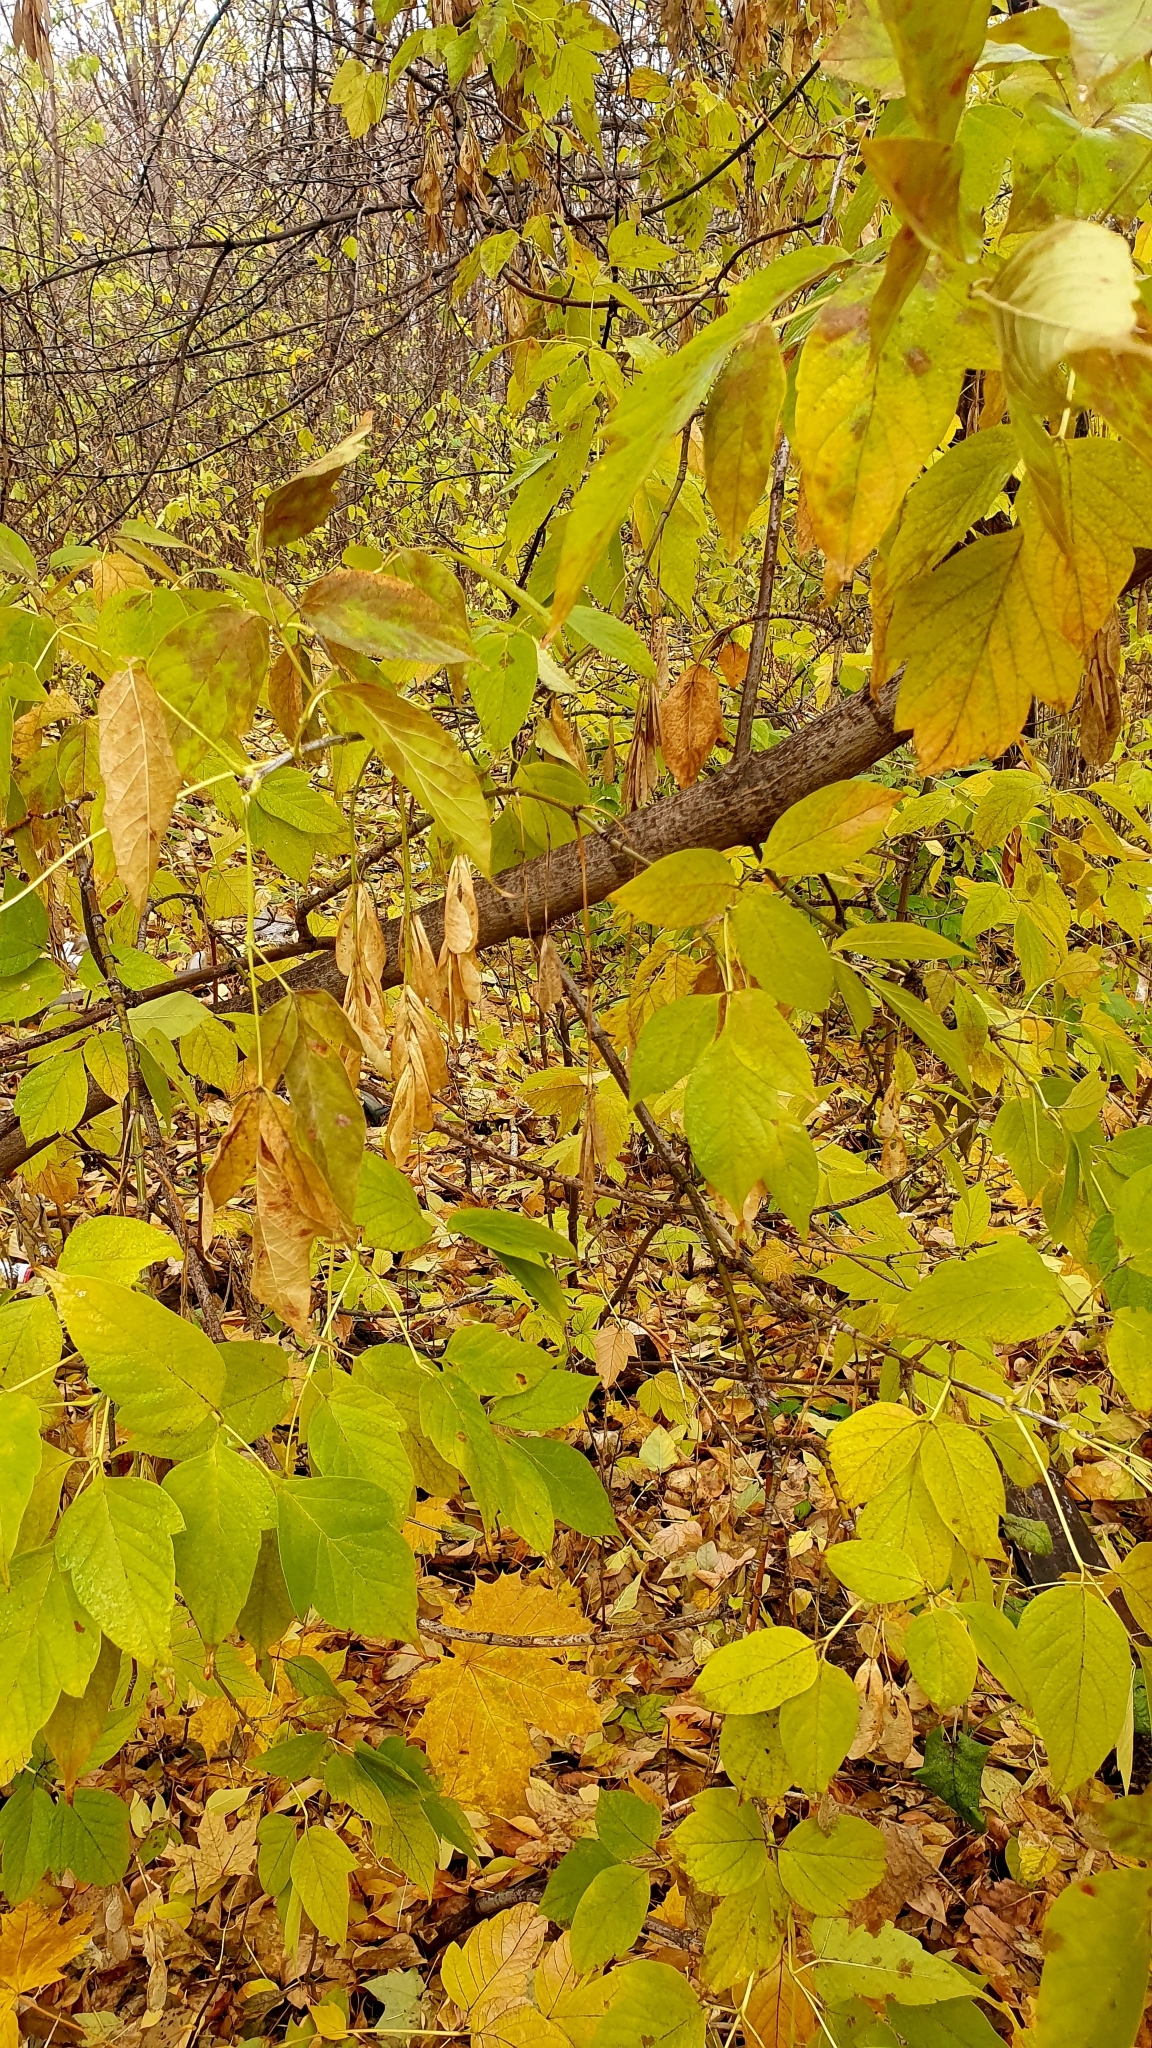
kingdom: Plantae
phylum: Tracheophyta
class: Magnoliopsida
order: Sapindales
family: Sapindaceae
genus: Acer
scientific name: Acer negundo
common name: Ashleaf maple
